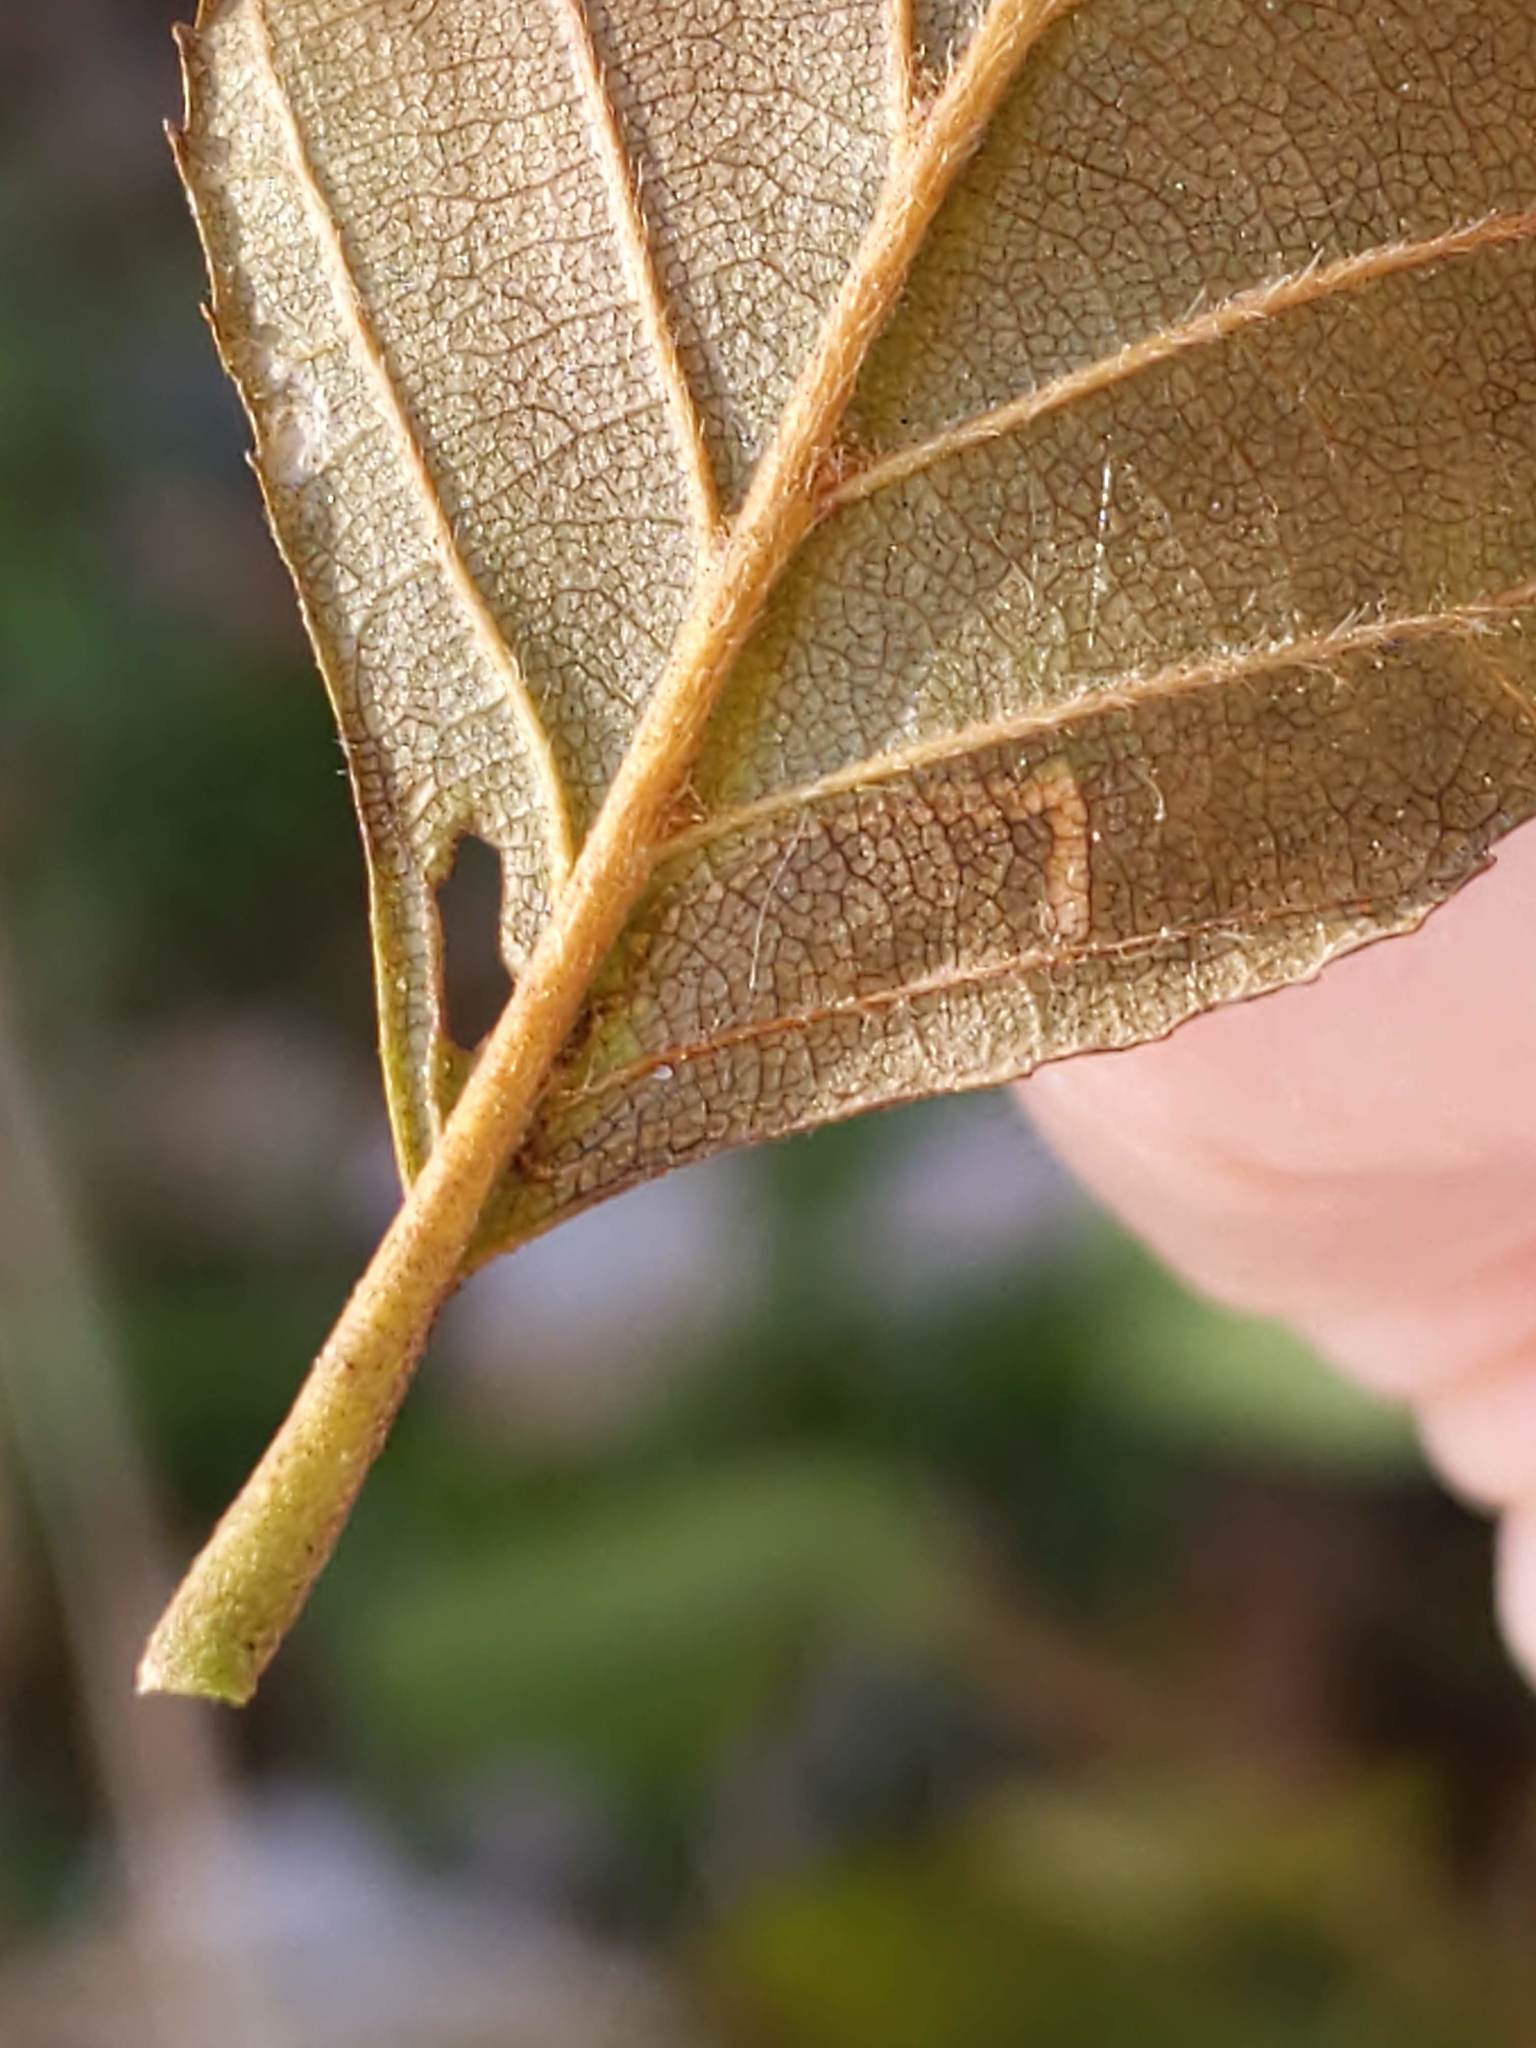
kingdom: Animalia
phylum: Arthropoda
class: Insecta
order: Lepidoptera
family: Nepticulidae
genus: Stigmella
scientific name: Stigmella corylifoliella
